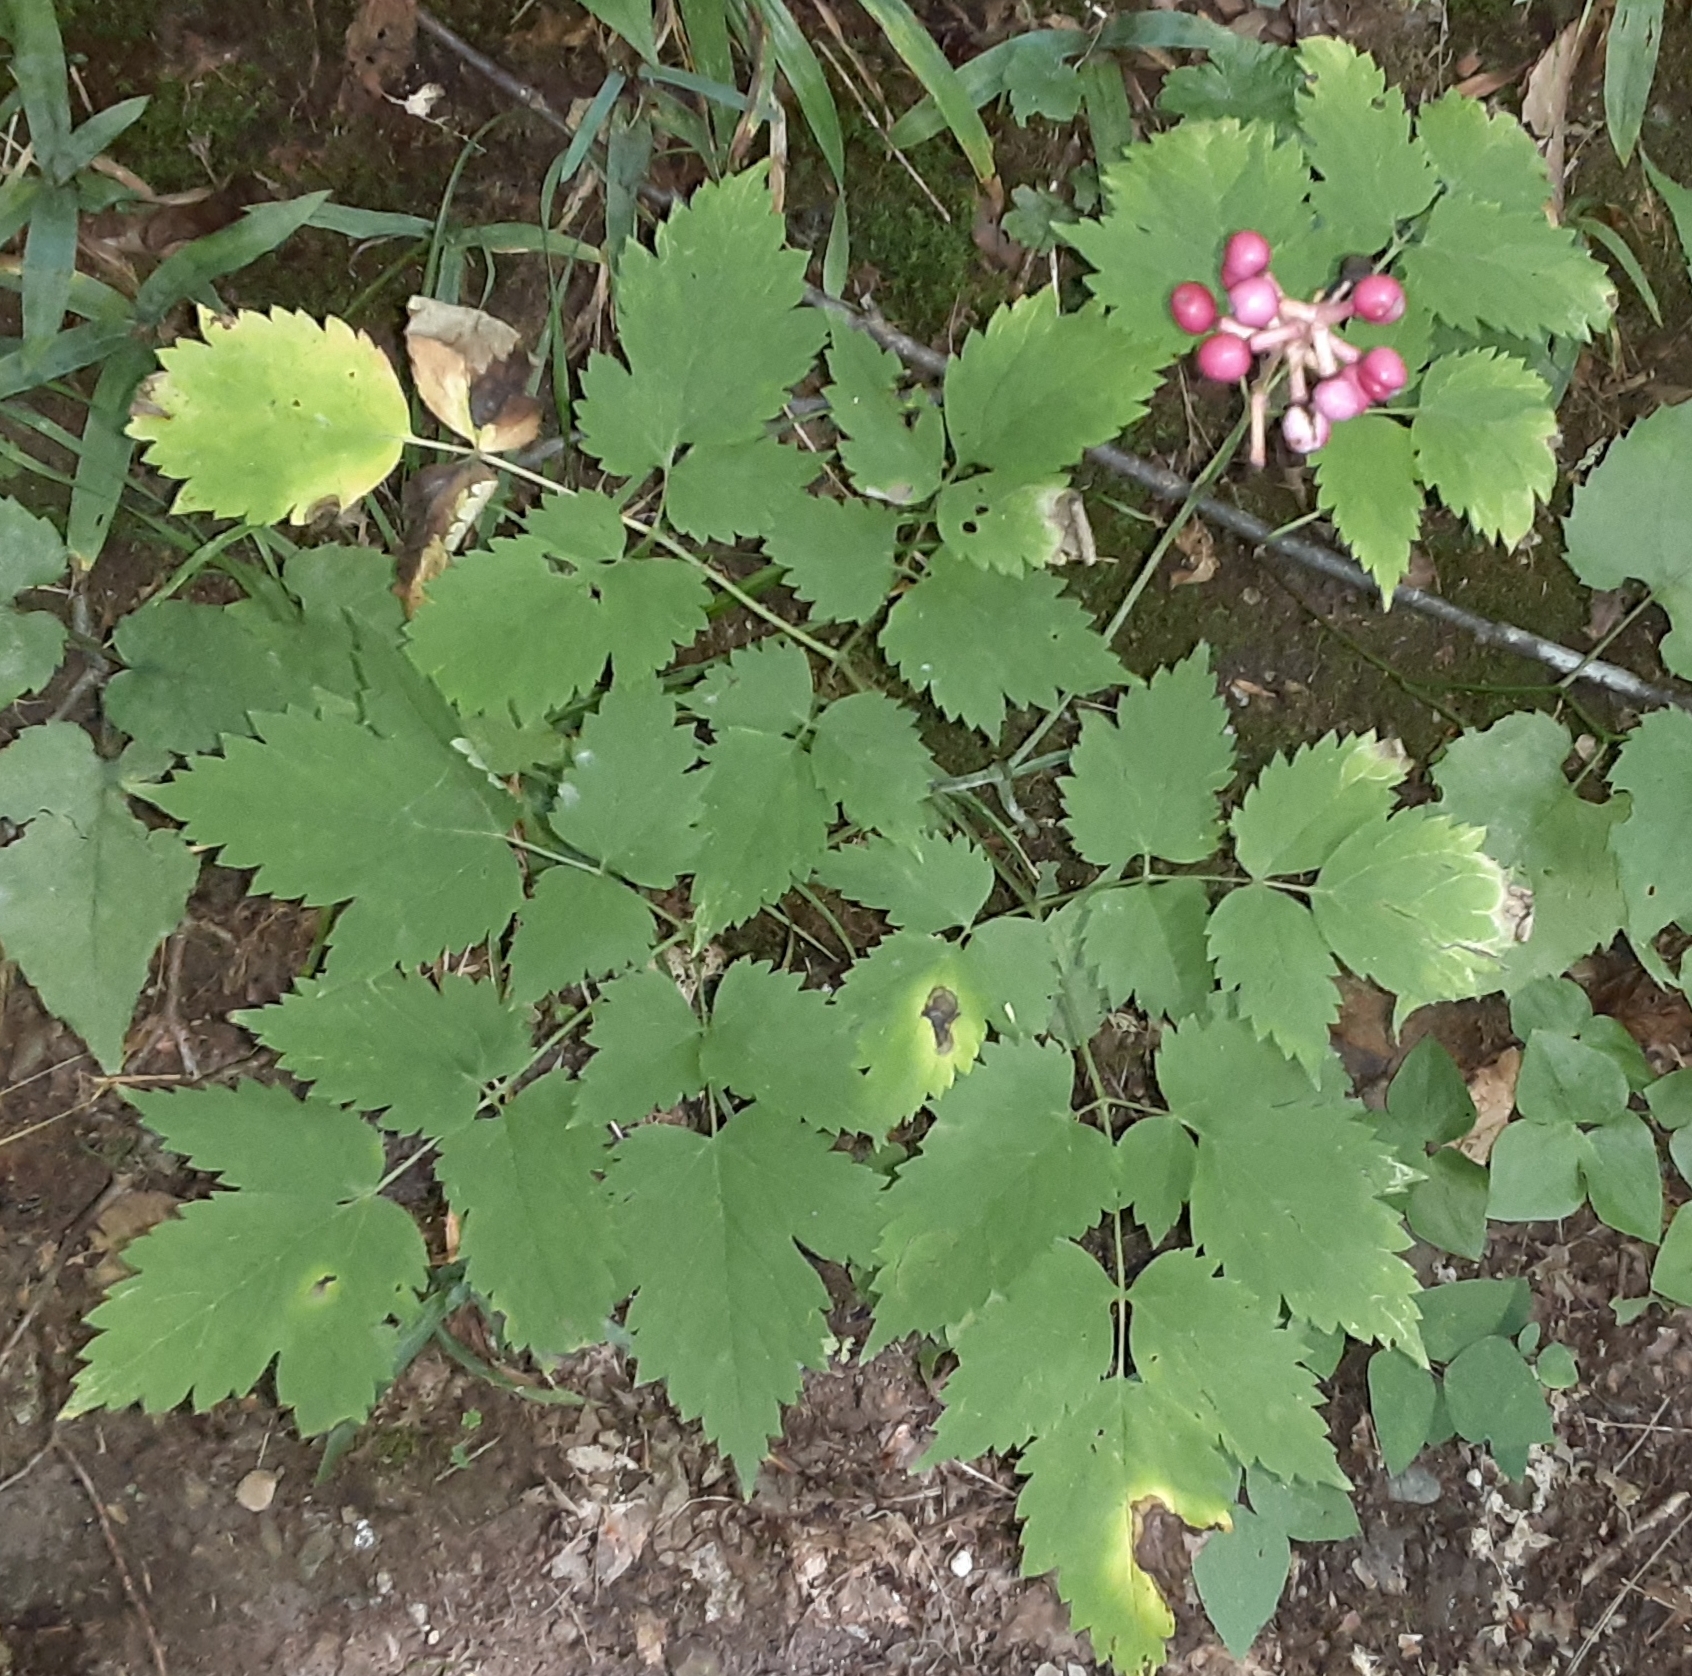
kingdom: Plantae
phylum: Tracheophyta
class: Magnoliopsida
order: Ranunculales
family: Ranunculaceae
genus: Actaea
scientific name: Actaea pachypoda
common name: Doll's-eyes
